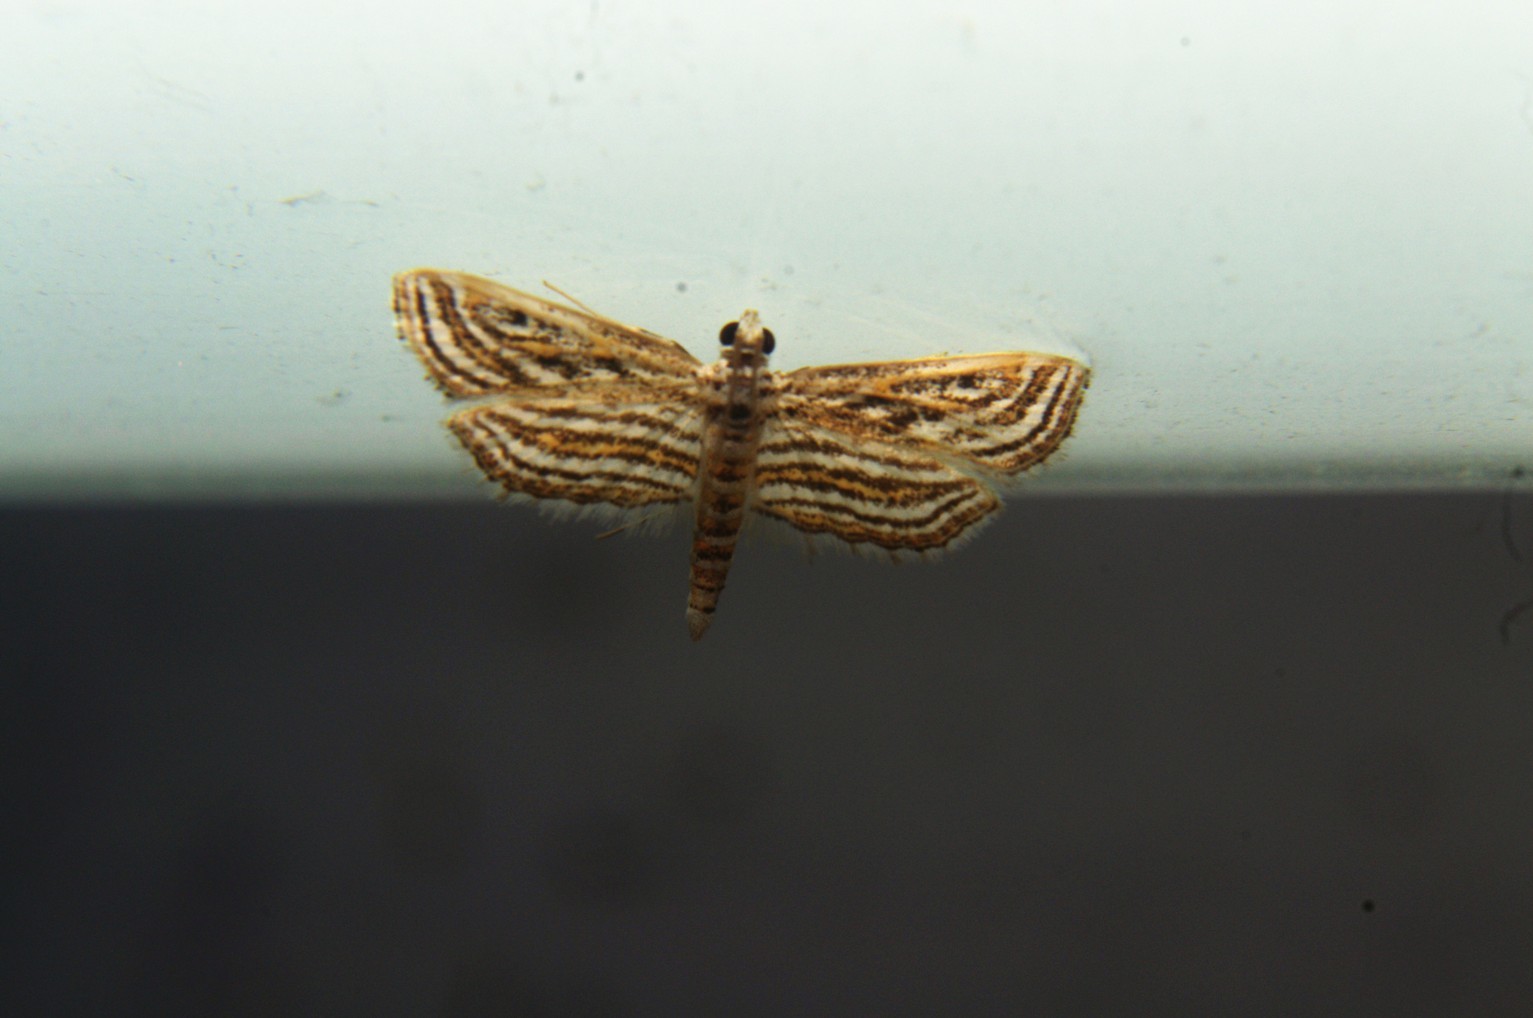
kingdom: Animalia
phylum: Arthropoda
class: Insecta
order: Lepidoptera
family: Crambidae
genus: Parapoynx
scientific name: Parapoynx fluctuosalis
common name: Moth
